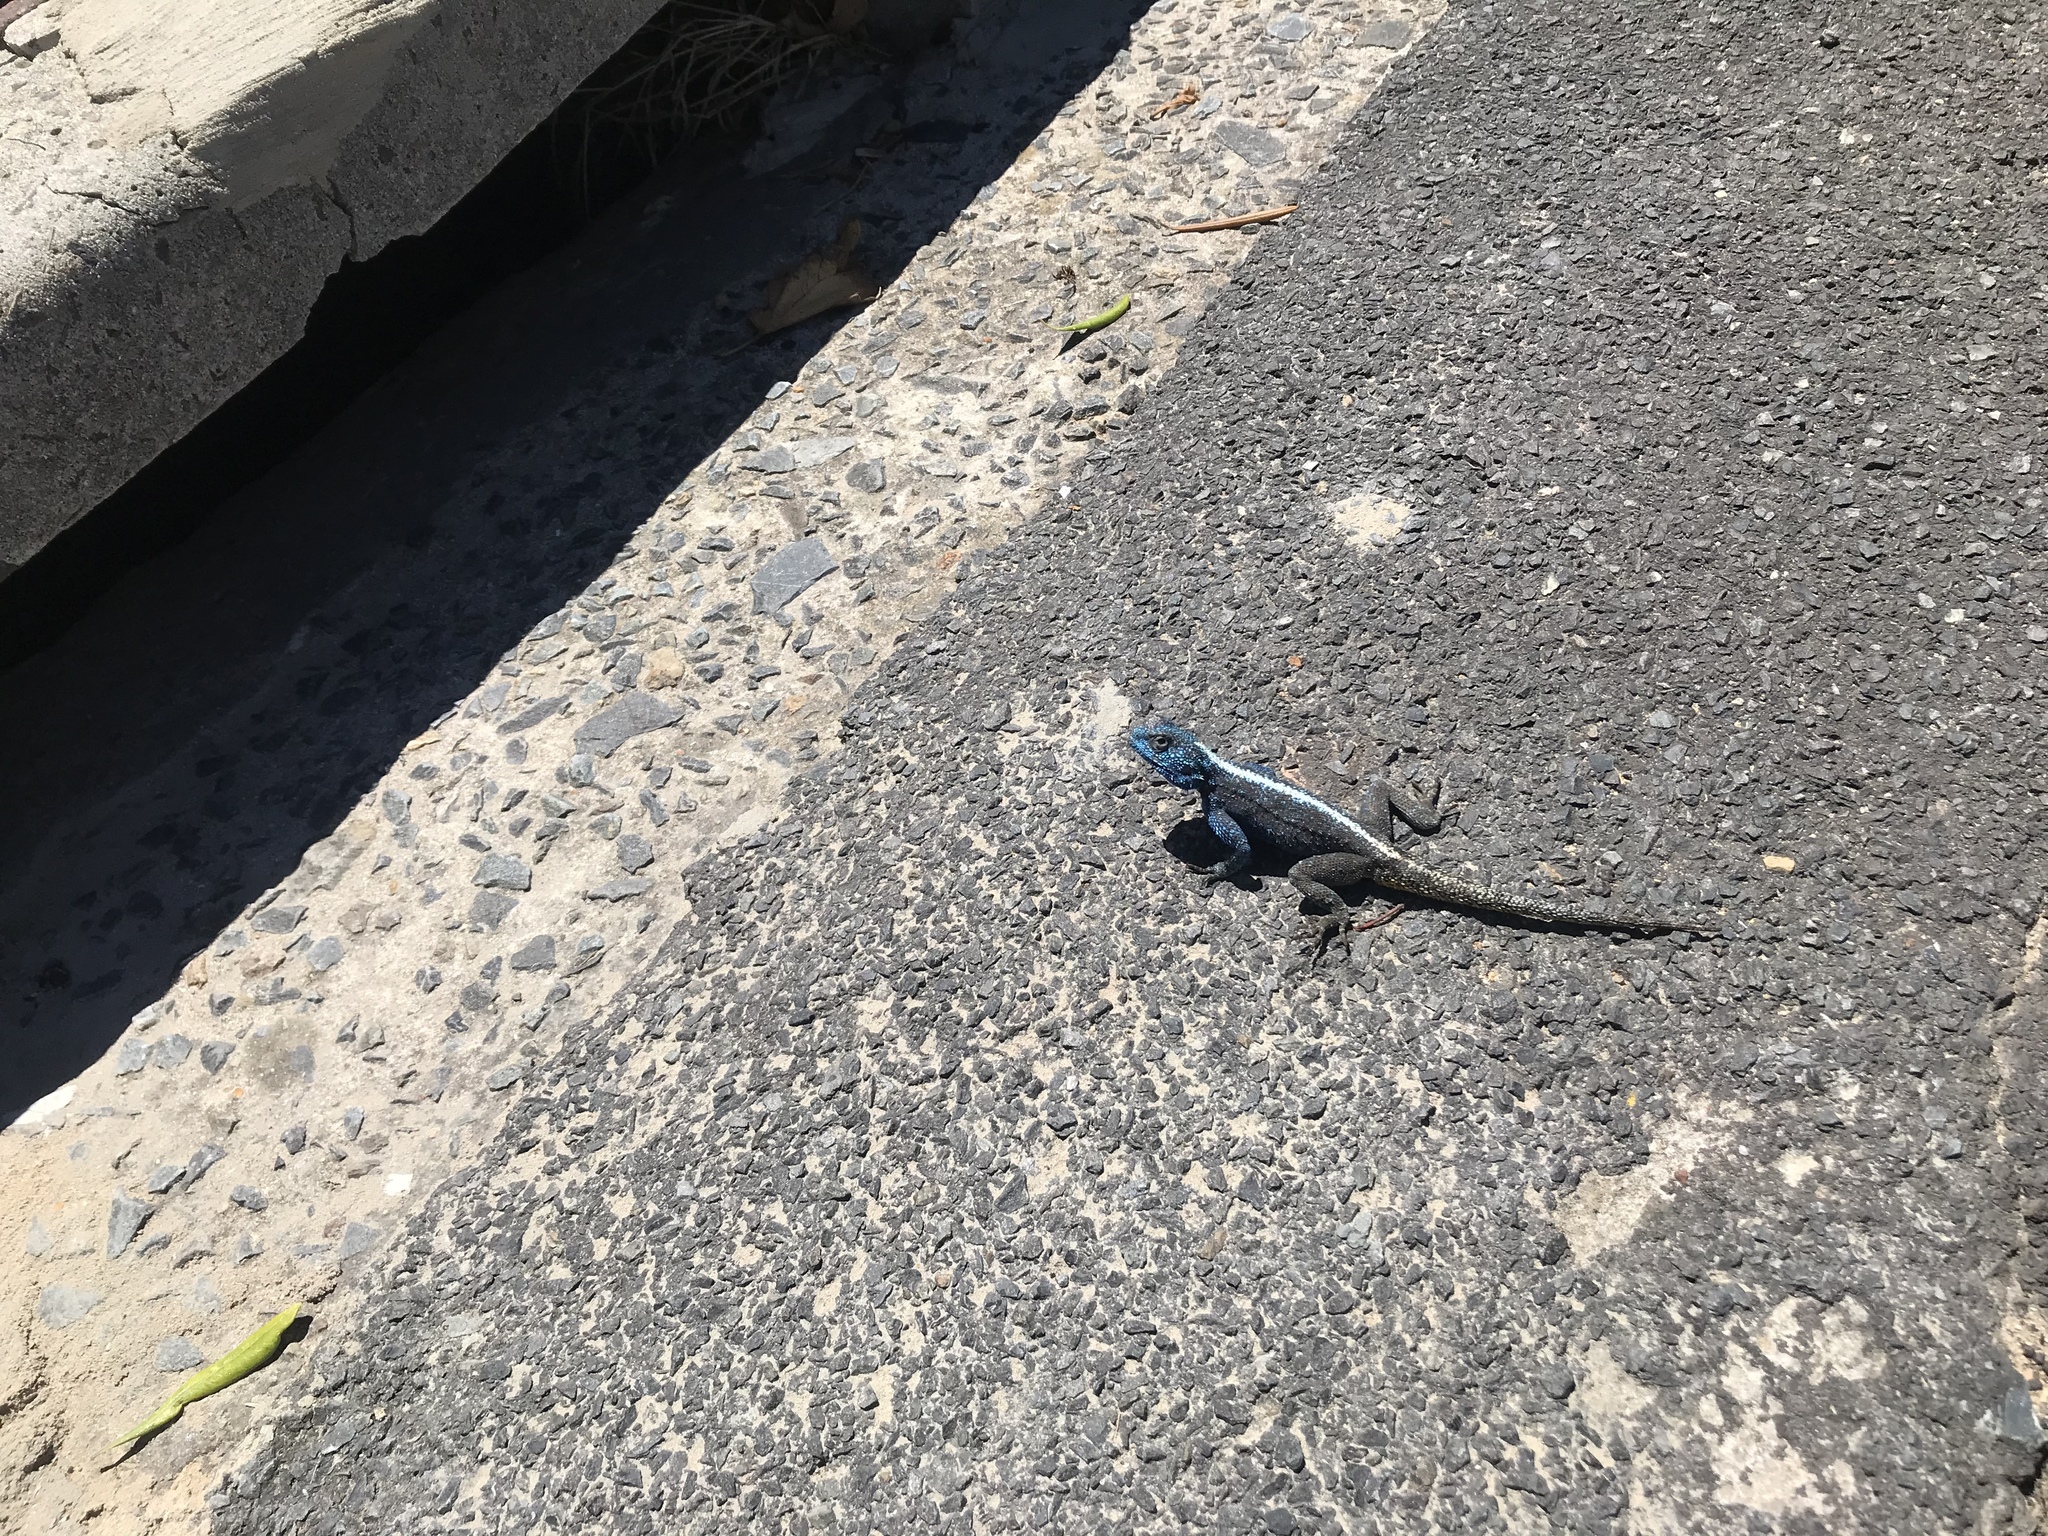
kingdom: Animalia
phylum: Chordata
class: Squamata
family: Agamidae
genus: Agama
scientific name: Agama atra
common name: Southern african rock agama
